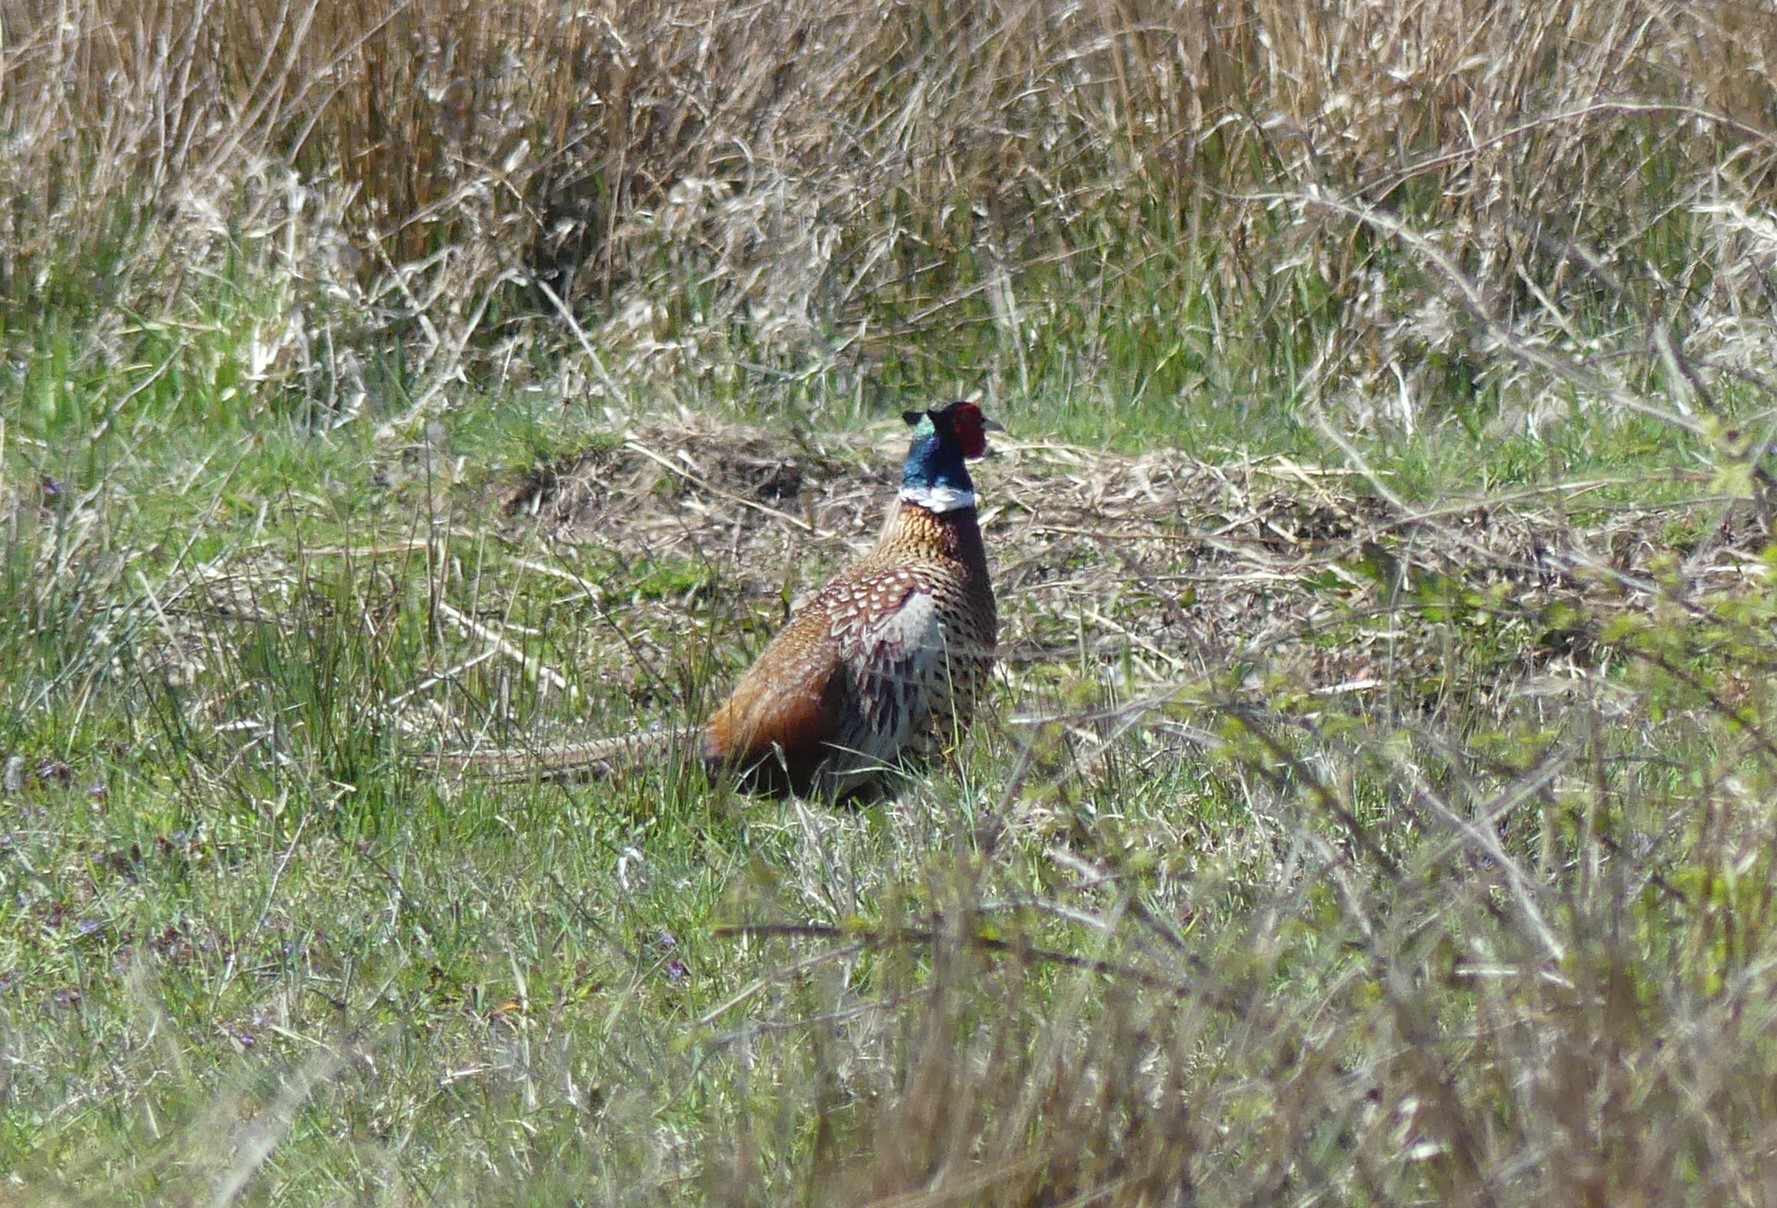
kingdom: Animalia
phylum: Chordata
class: Aves
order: Galliformes
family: Phasianidae
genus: Phasianus
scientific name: Phasianus colchicus
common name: Common pheasant
